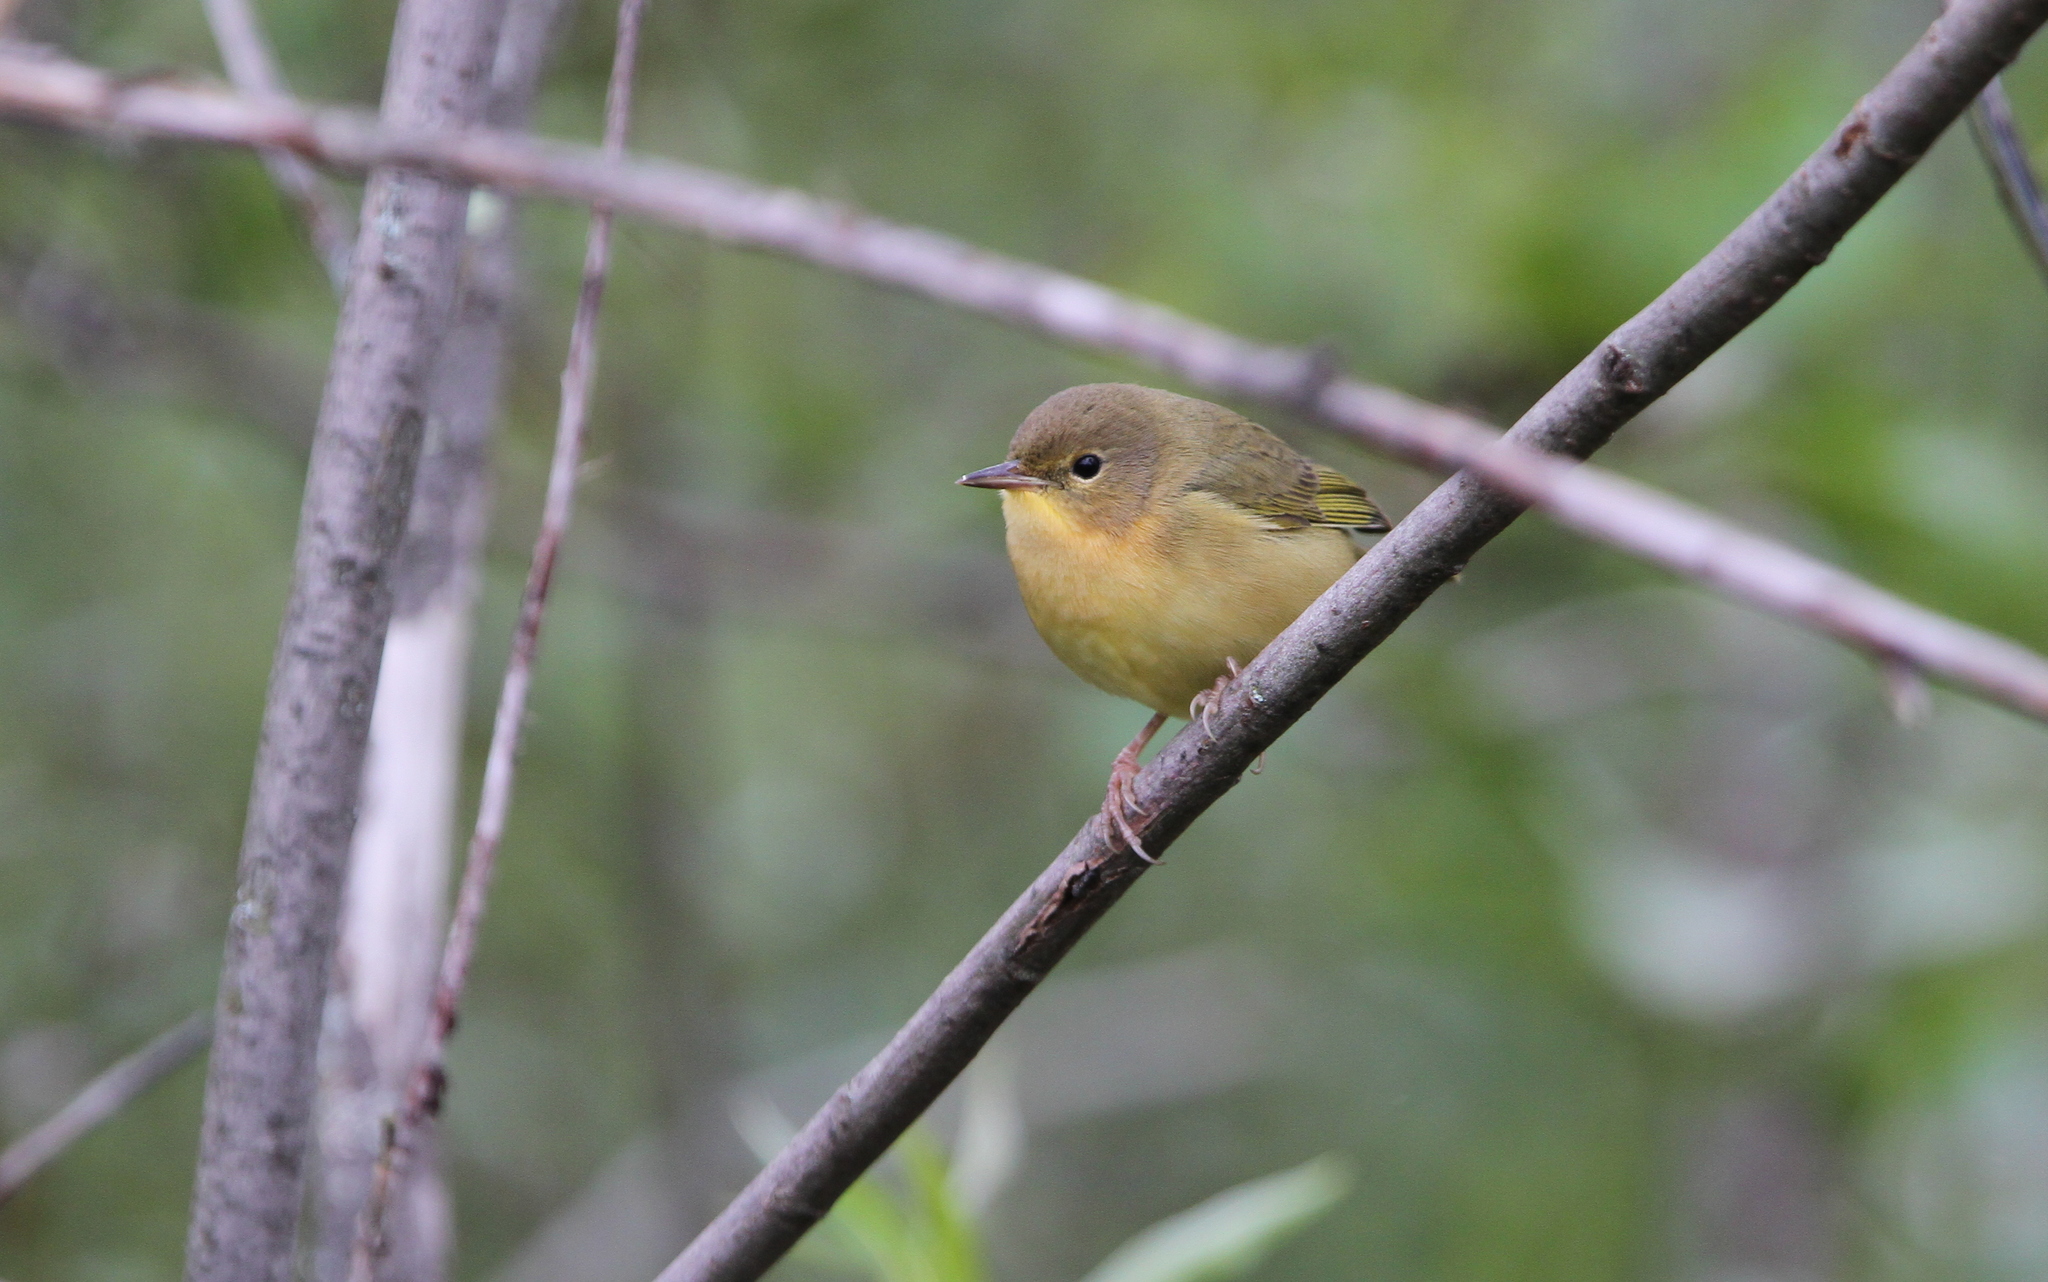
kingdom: Animalia
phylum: Chordata
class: Aves
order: Passeriformes
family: Parulidae
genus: Geothlypis
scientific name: Geothlypis trichas
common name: Common yellowthroat
